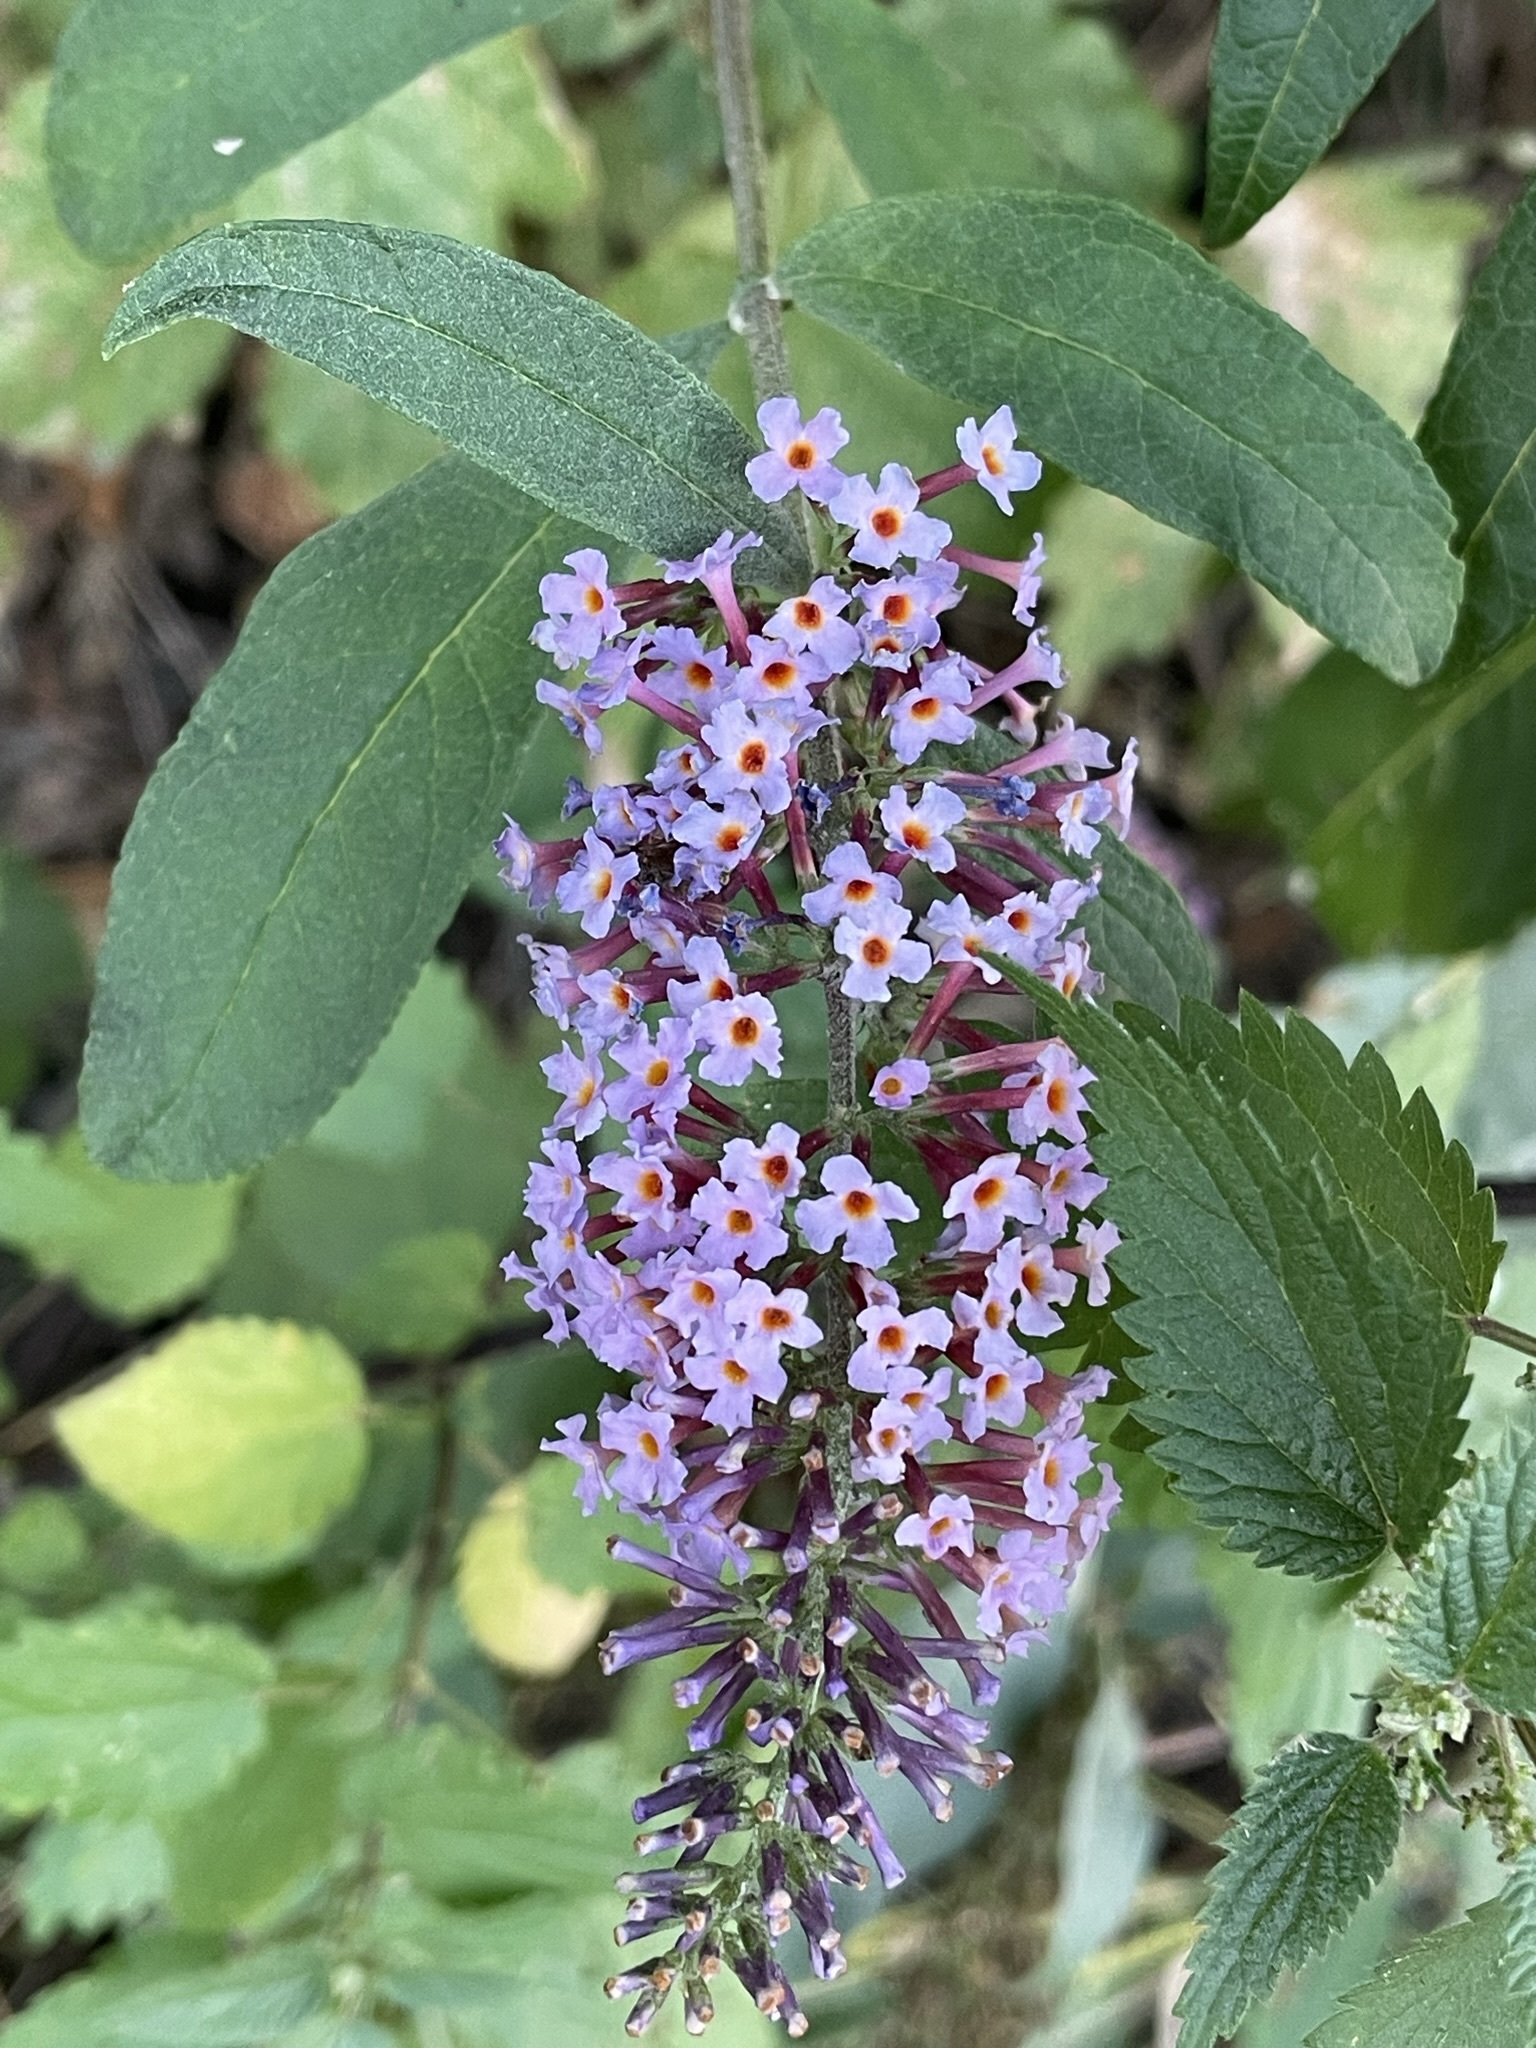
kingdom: Plantae
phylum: Tracheophyta
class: Magnoliopsida
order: Lamiales
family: Scrophulariaceae
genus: Buddleja
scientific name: Buddleja davidii
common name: Butterfly-bush
